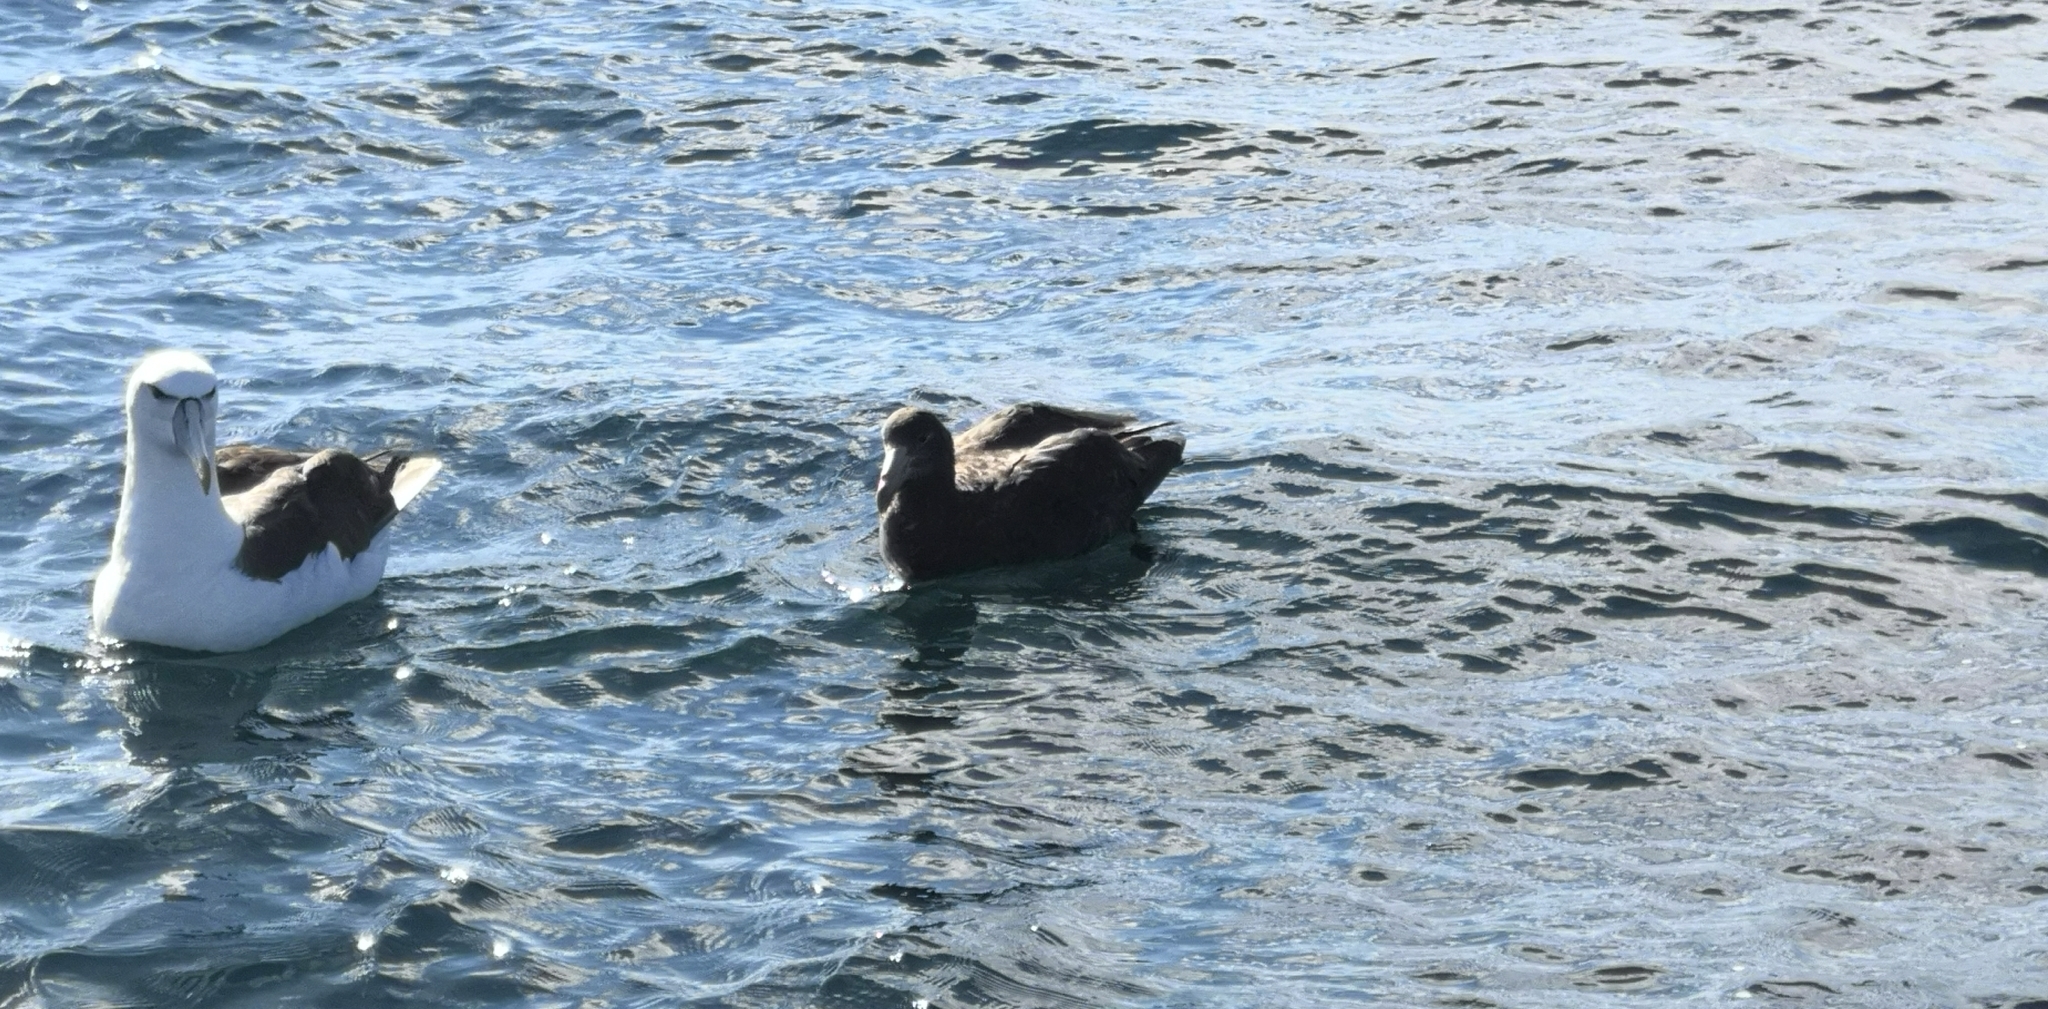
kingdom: Animalia
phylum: Chordata
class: Aves
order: Procellariiformes
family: Procellariidae
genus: Macronectes
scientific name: Macronectes halli
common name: Northern giant petrel
